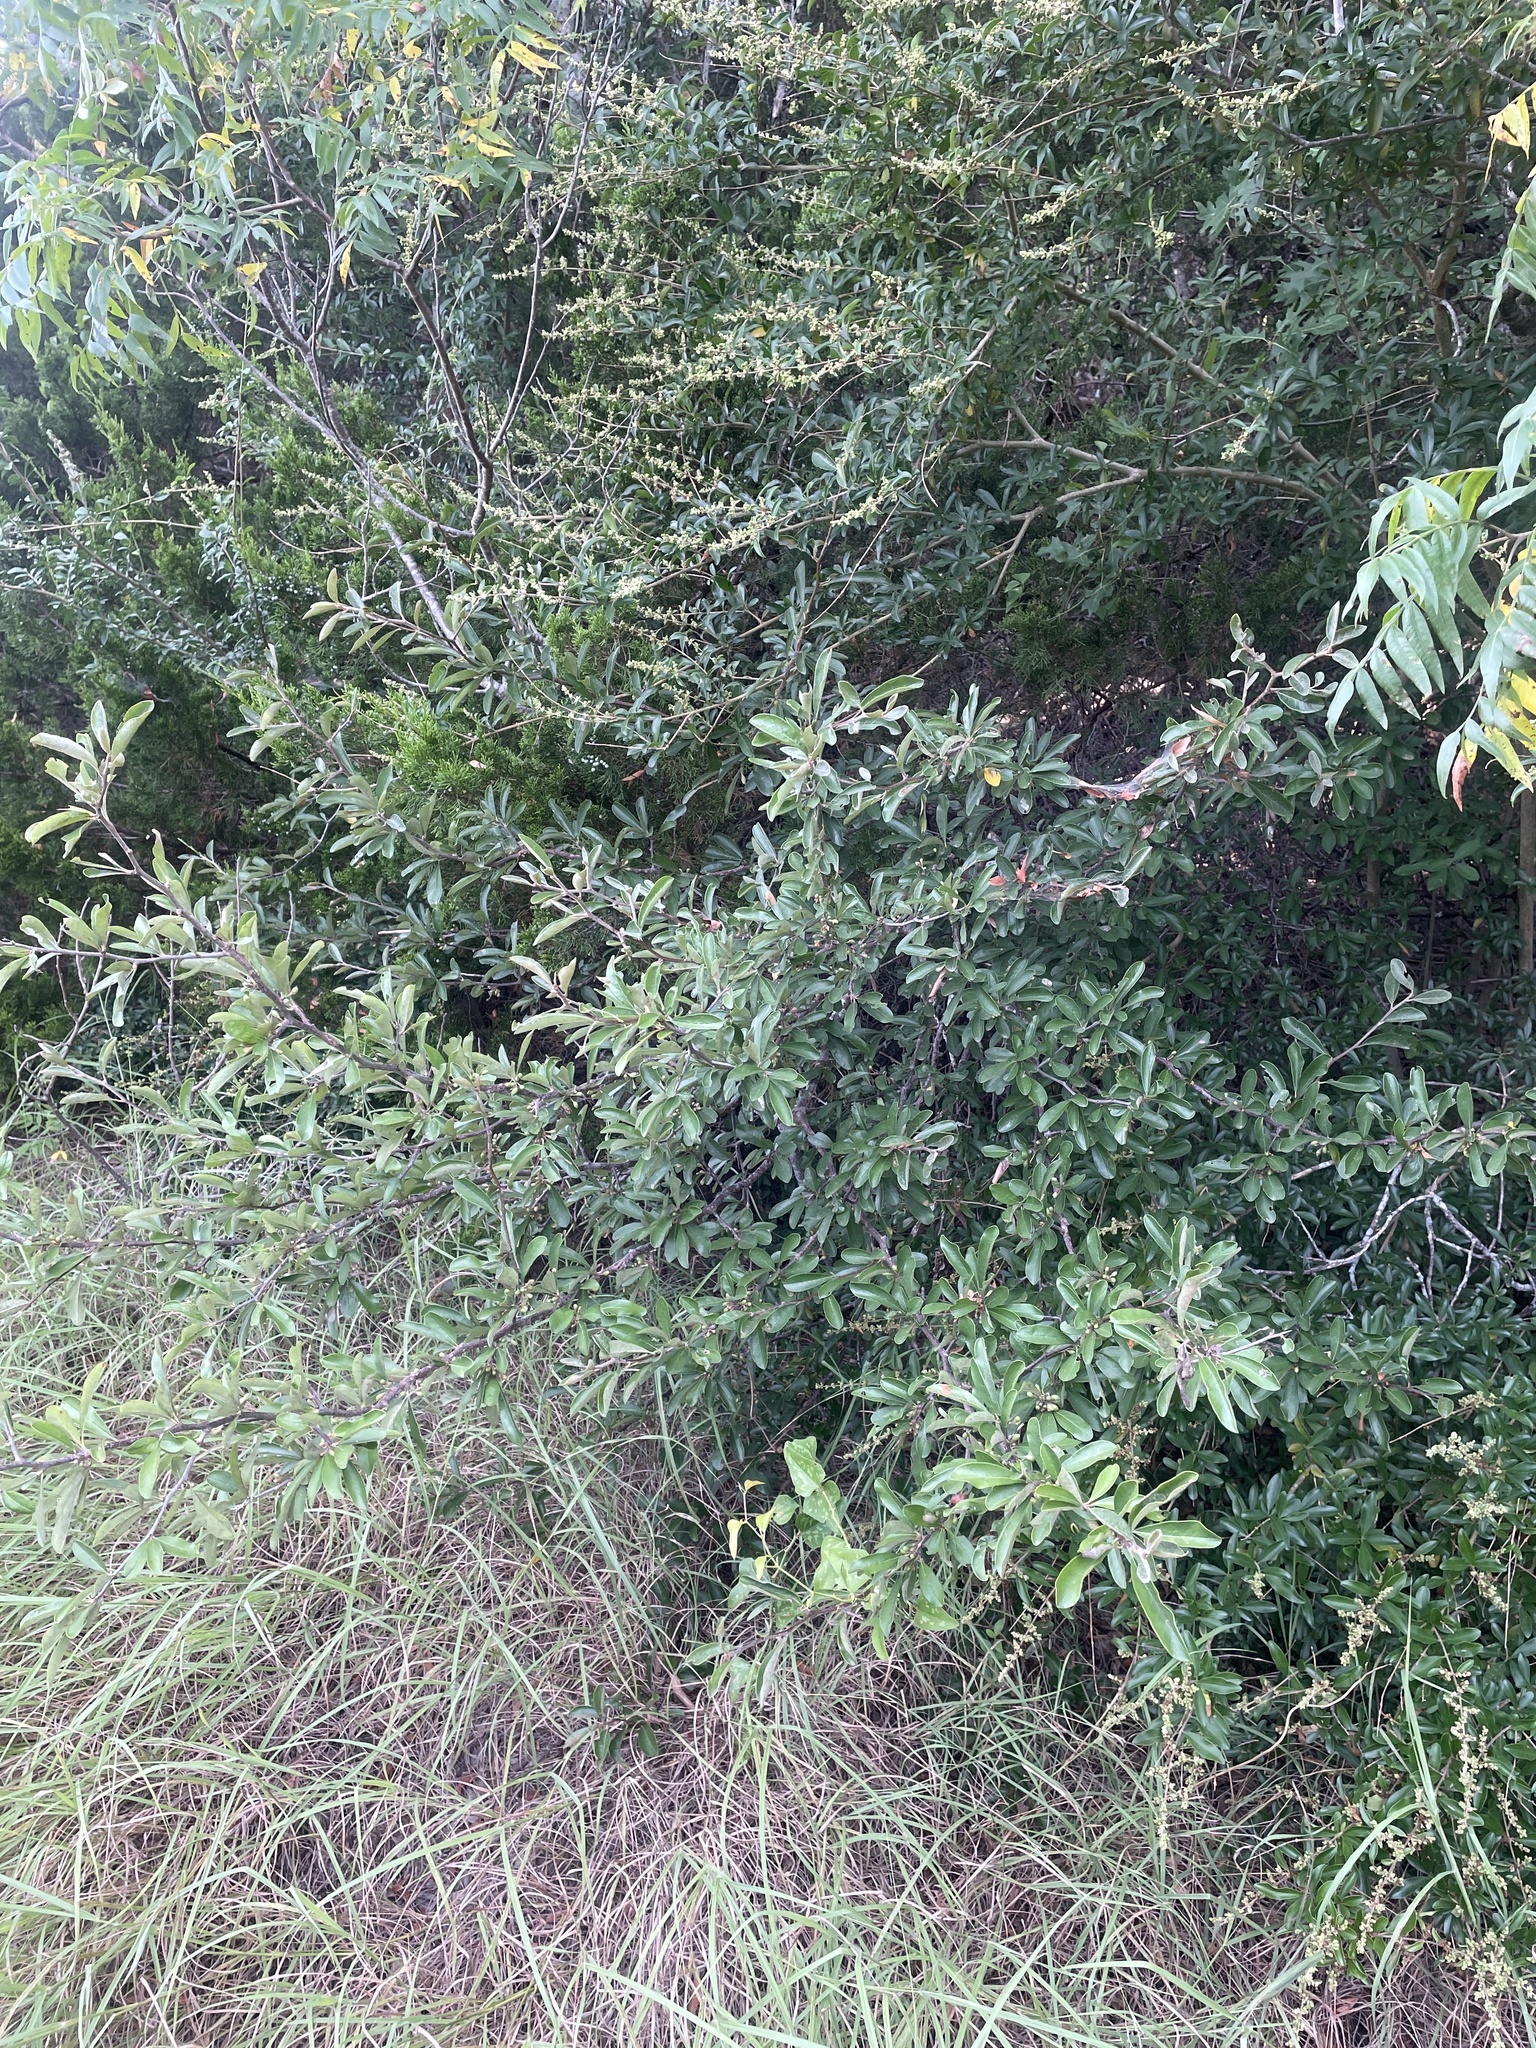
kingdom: Plantae
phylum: Tracheophyta
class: Magnoliopsida
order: Ericales
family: Sapotaceae
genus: Sideroxylon
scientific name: Sideroxylon lanuginosum
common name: Chittamwood
